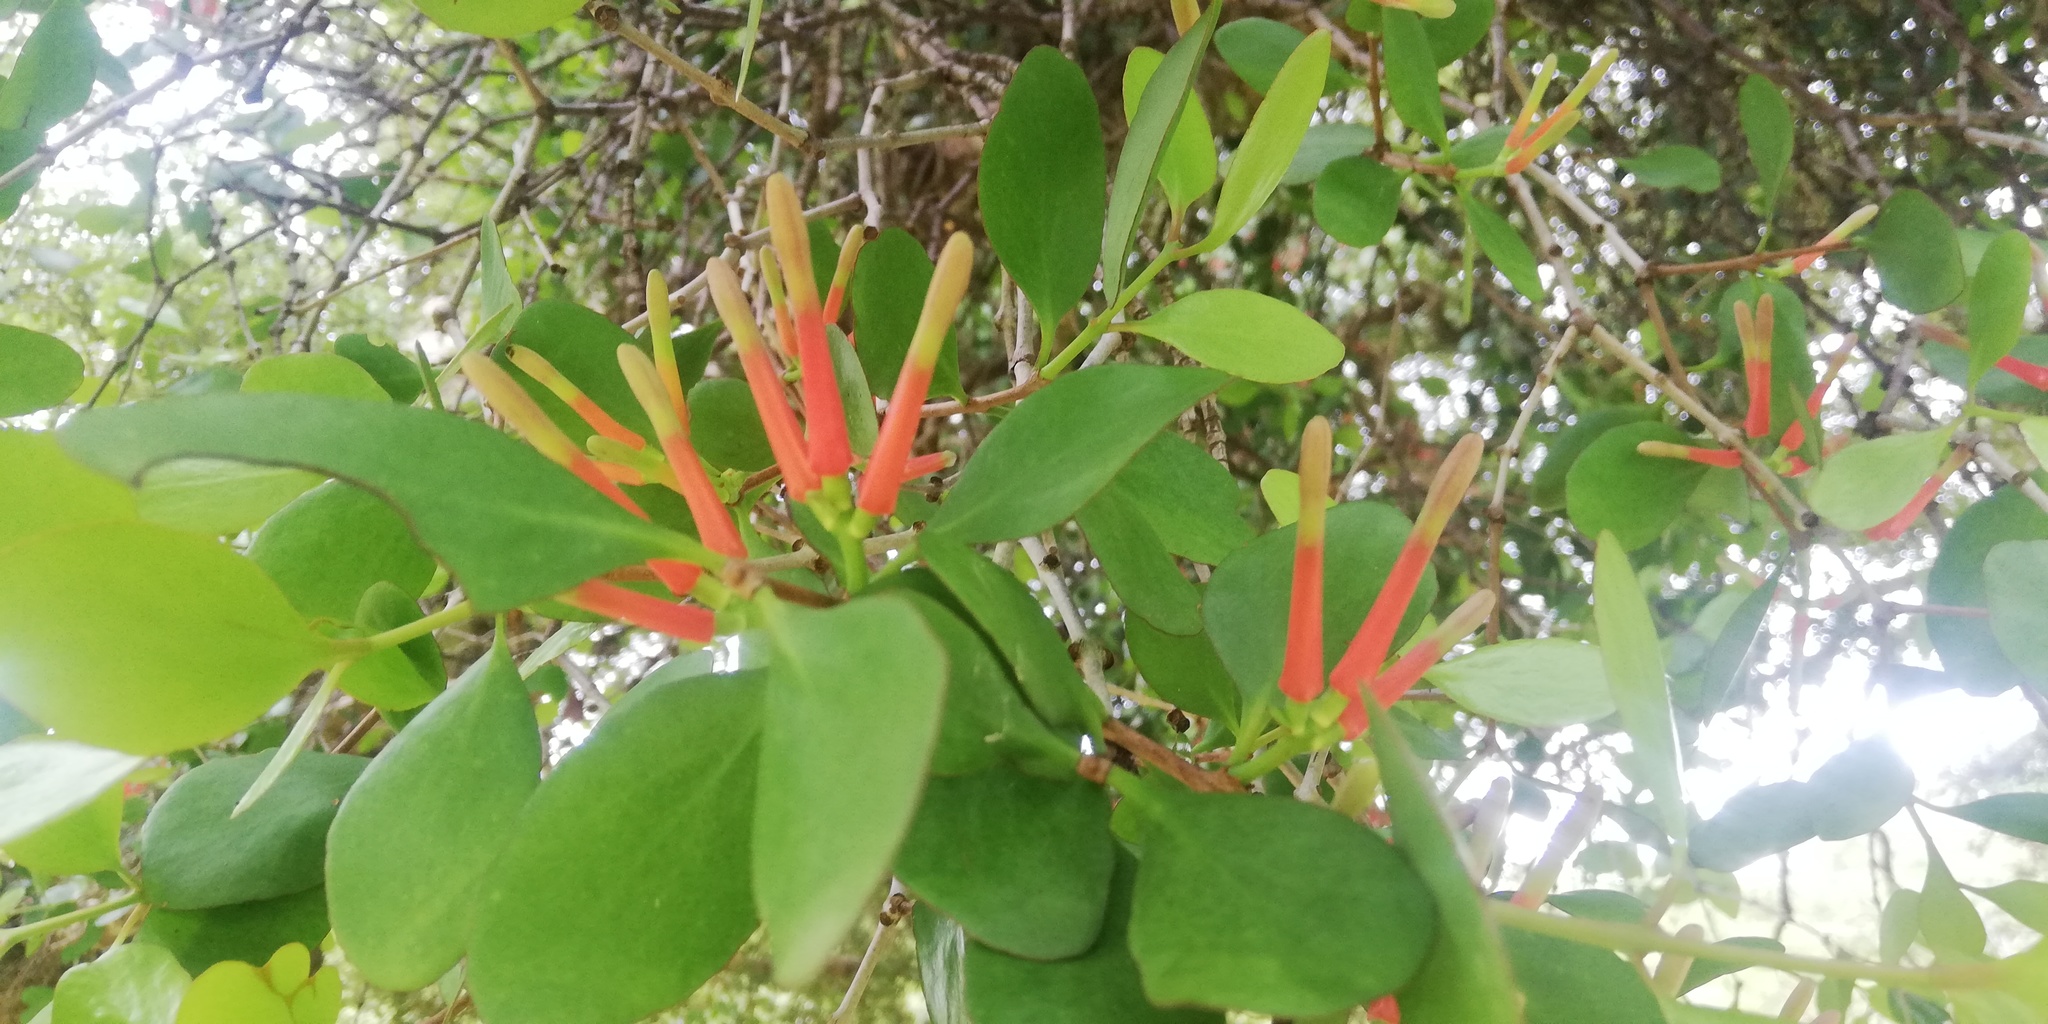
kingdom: Plantae
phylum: Tracheophyta
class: Magnoliopsida
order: Santalales
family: Loranthaceae
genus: Peraxilla
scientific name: Peraxilla colensoi
